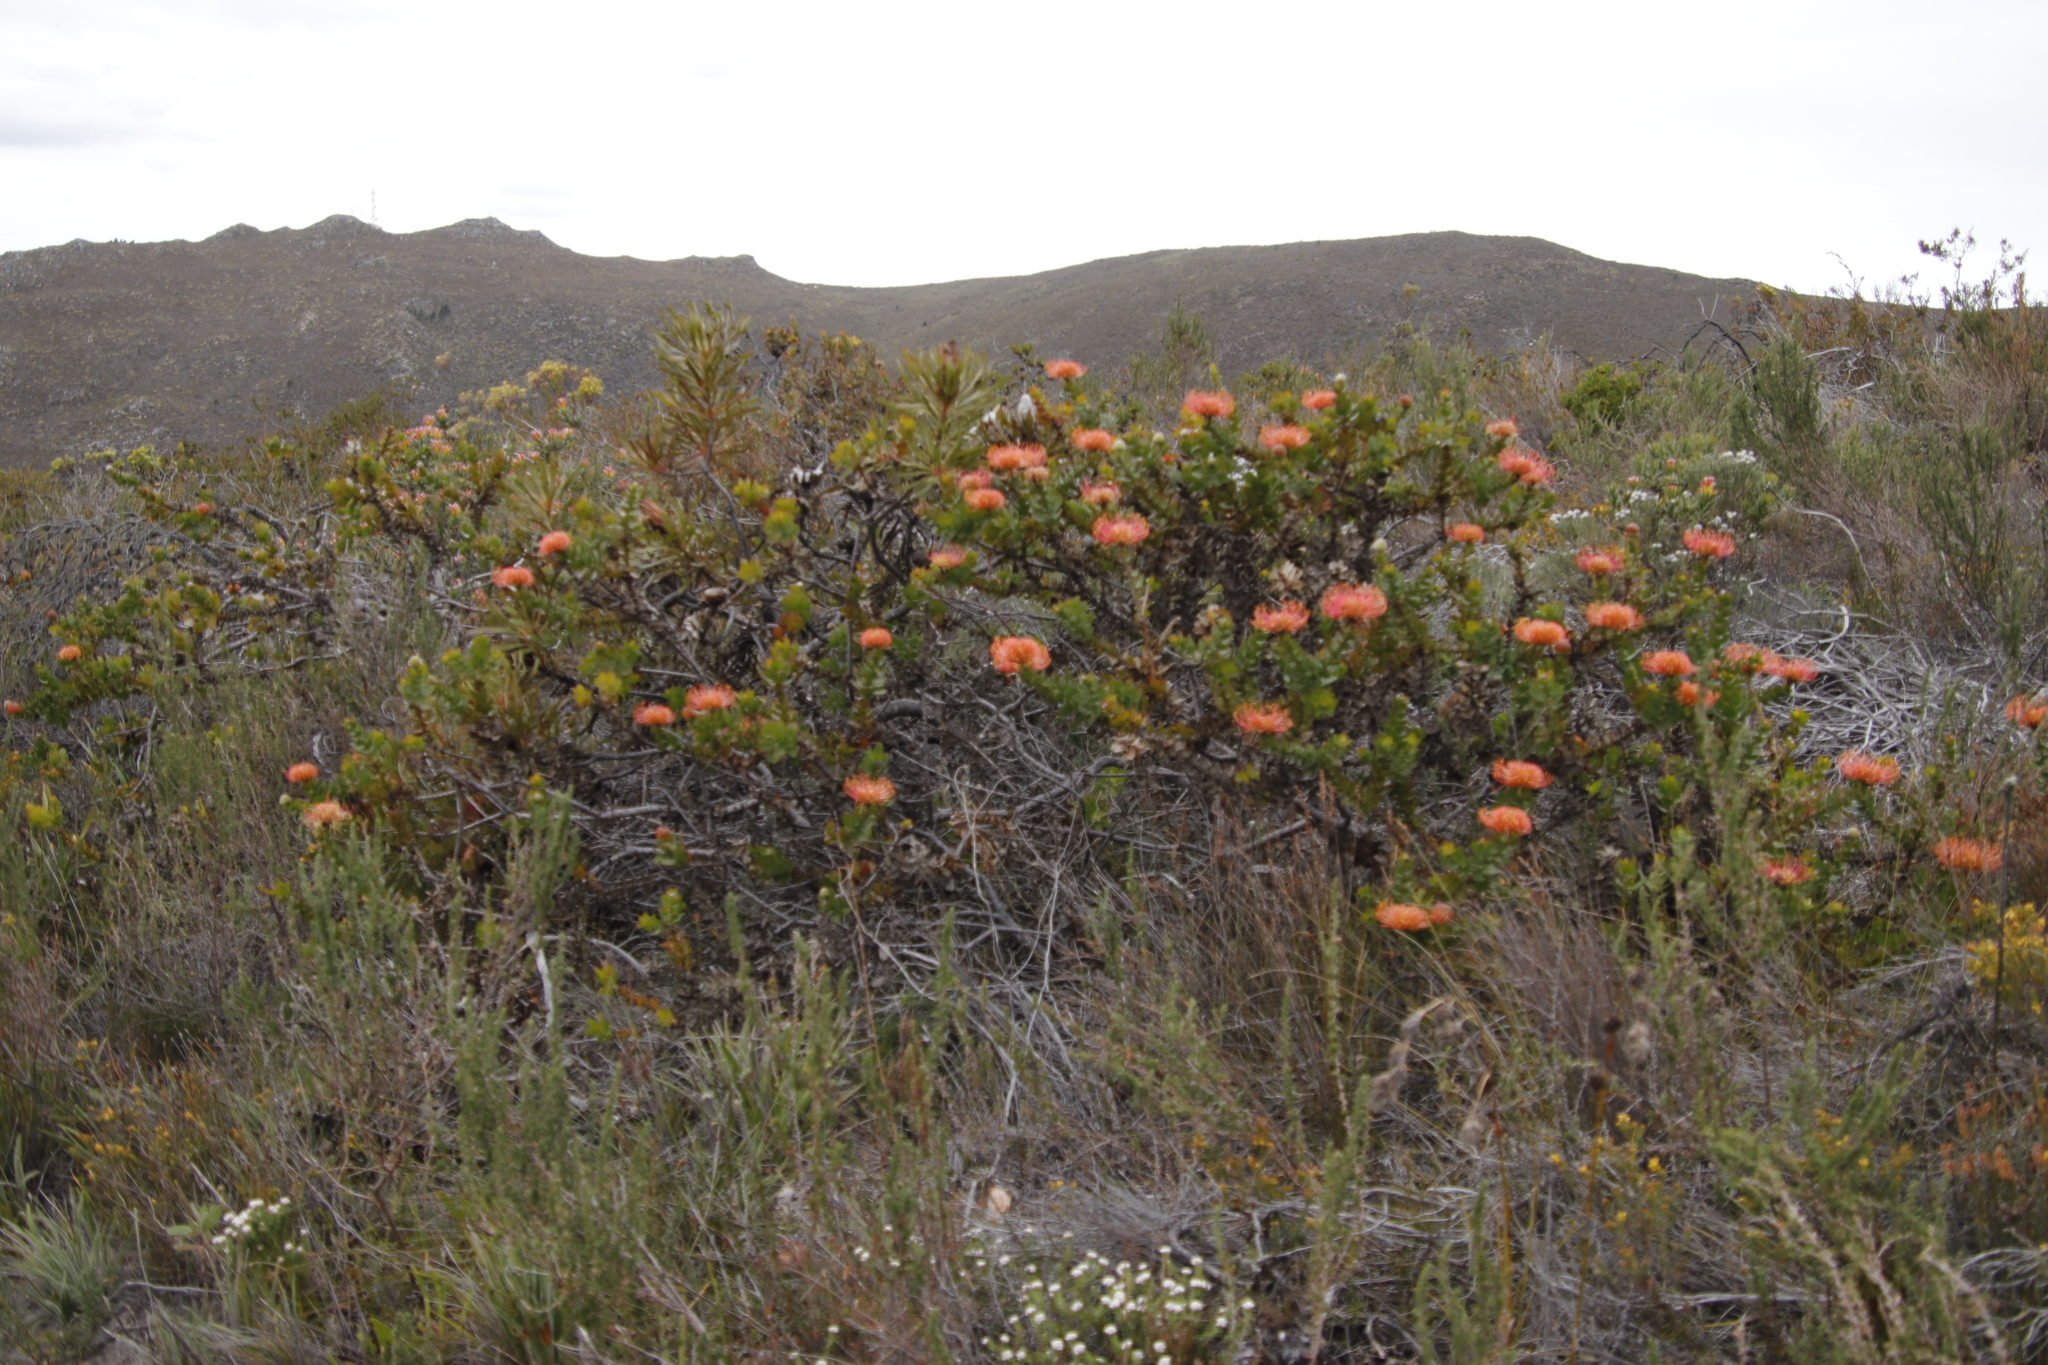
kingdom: Plantae
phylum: Tracheophyta
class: Magnoliopsida
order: Proteales
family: Proteaceae
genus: Leucospermum
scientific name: Leucospermum cordifolium
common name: Red pincushion-protea
